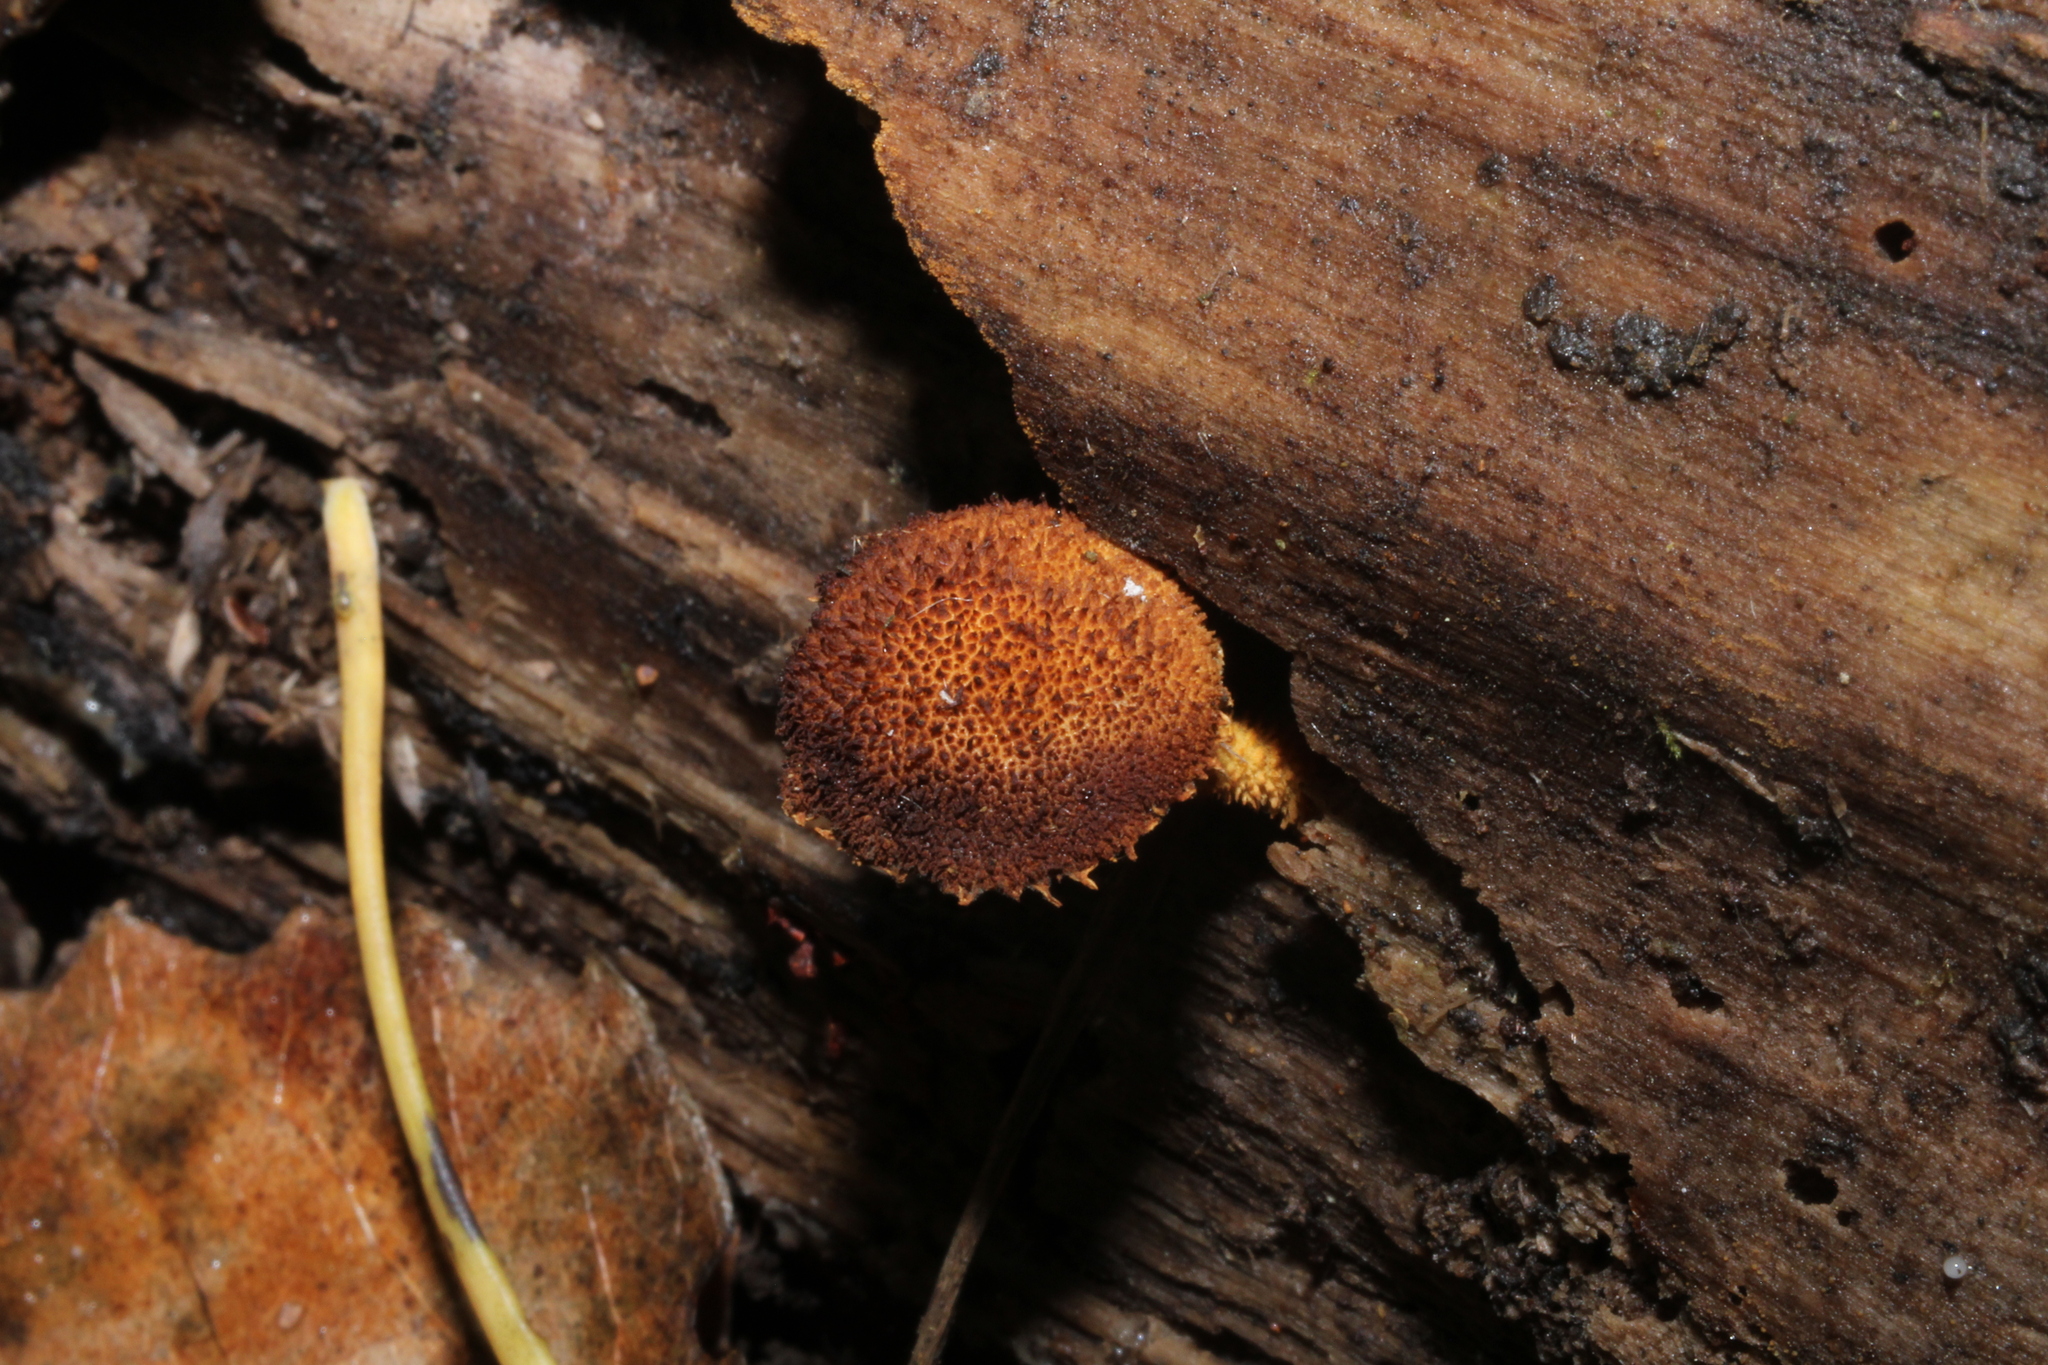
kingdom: Fungi
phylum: Basidiomycota
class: Agaricomycetes
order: Agaricales
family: Tubariaceae
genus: Flammulaster
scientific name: Flammulaster erinaceellus
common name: Powder-scale pholiota
